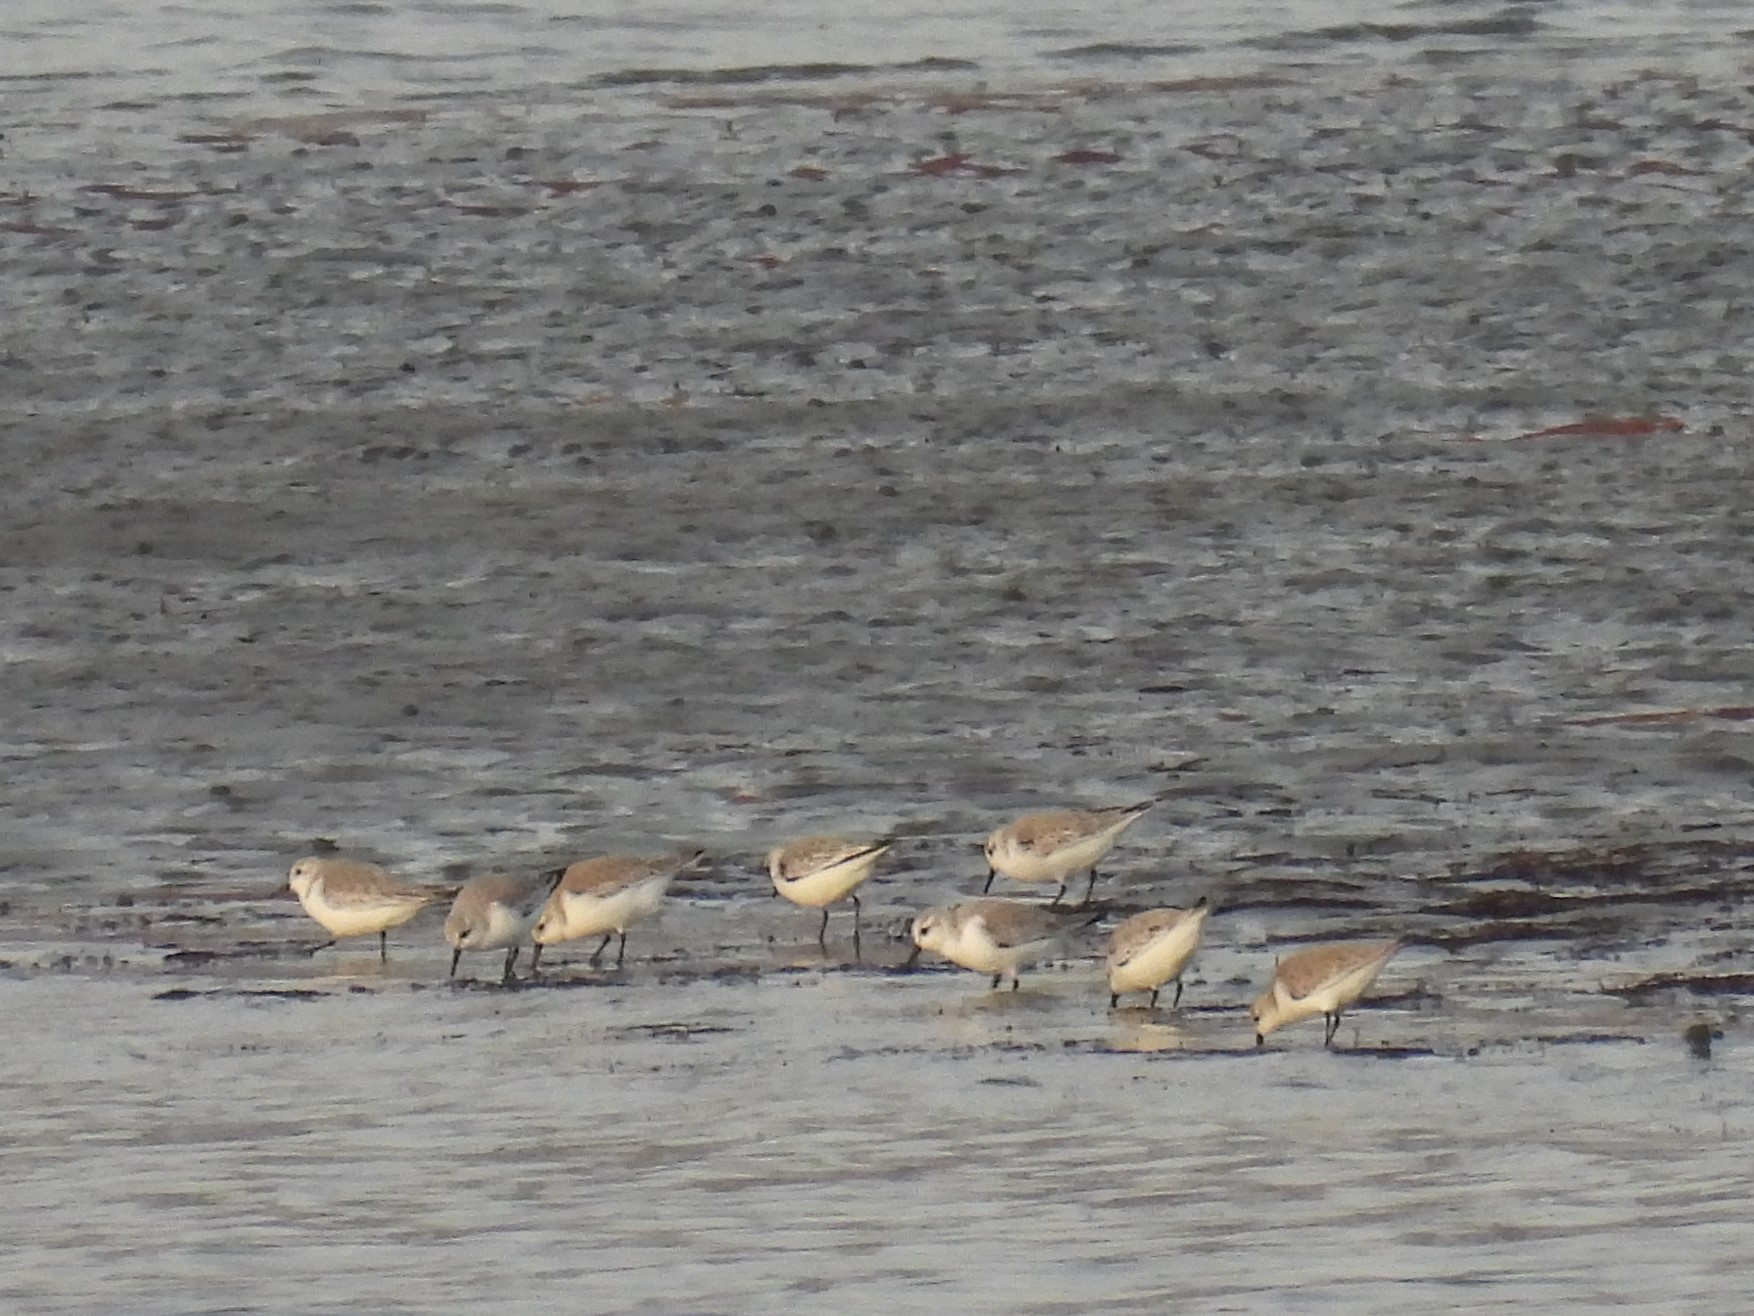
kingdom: Animalia
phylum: Chordata
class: Aves
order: Charadriiformes
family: Scolopacidae
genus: Calidris
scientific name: Calidris alba
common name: Sanderling
